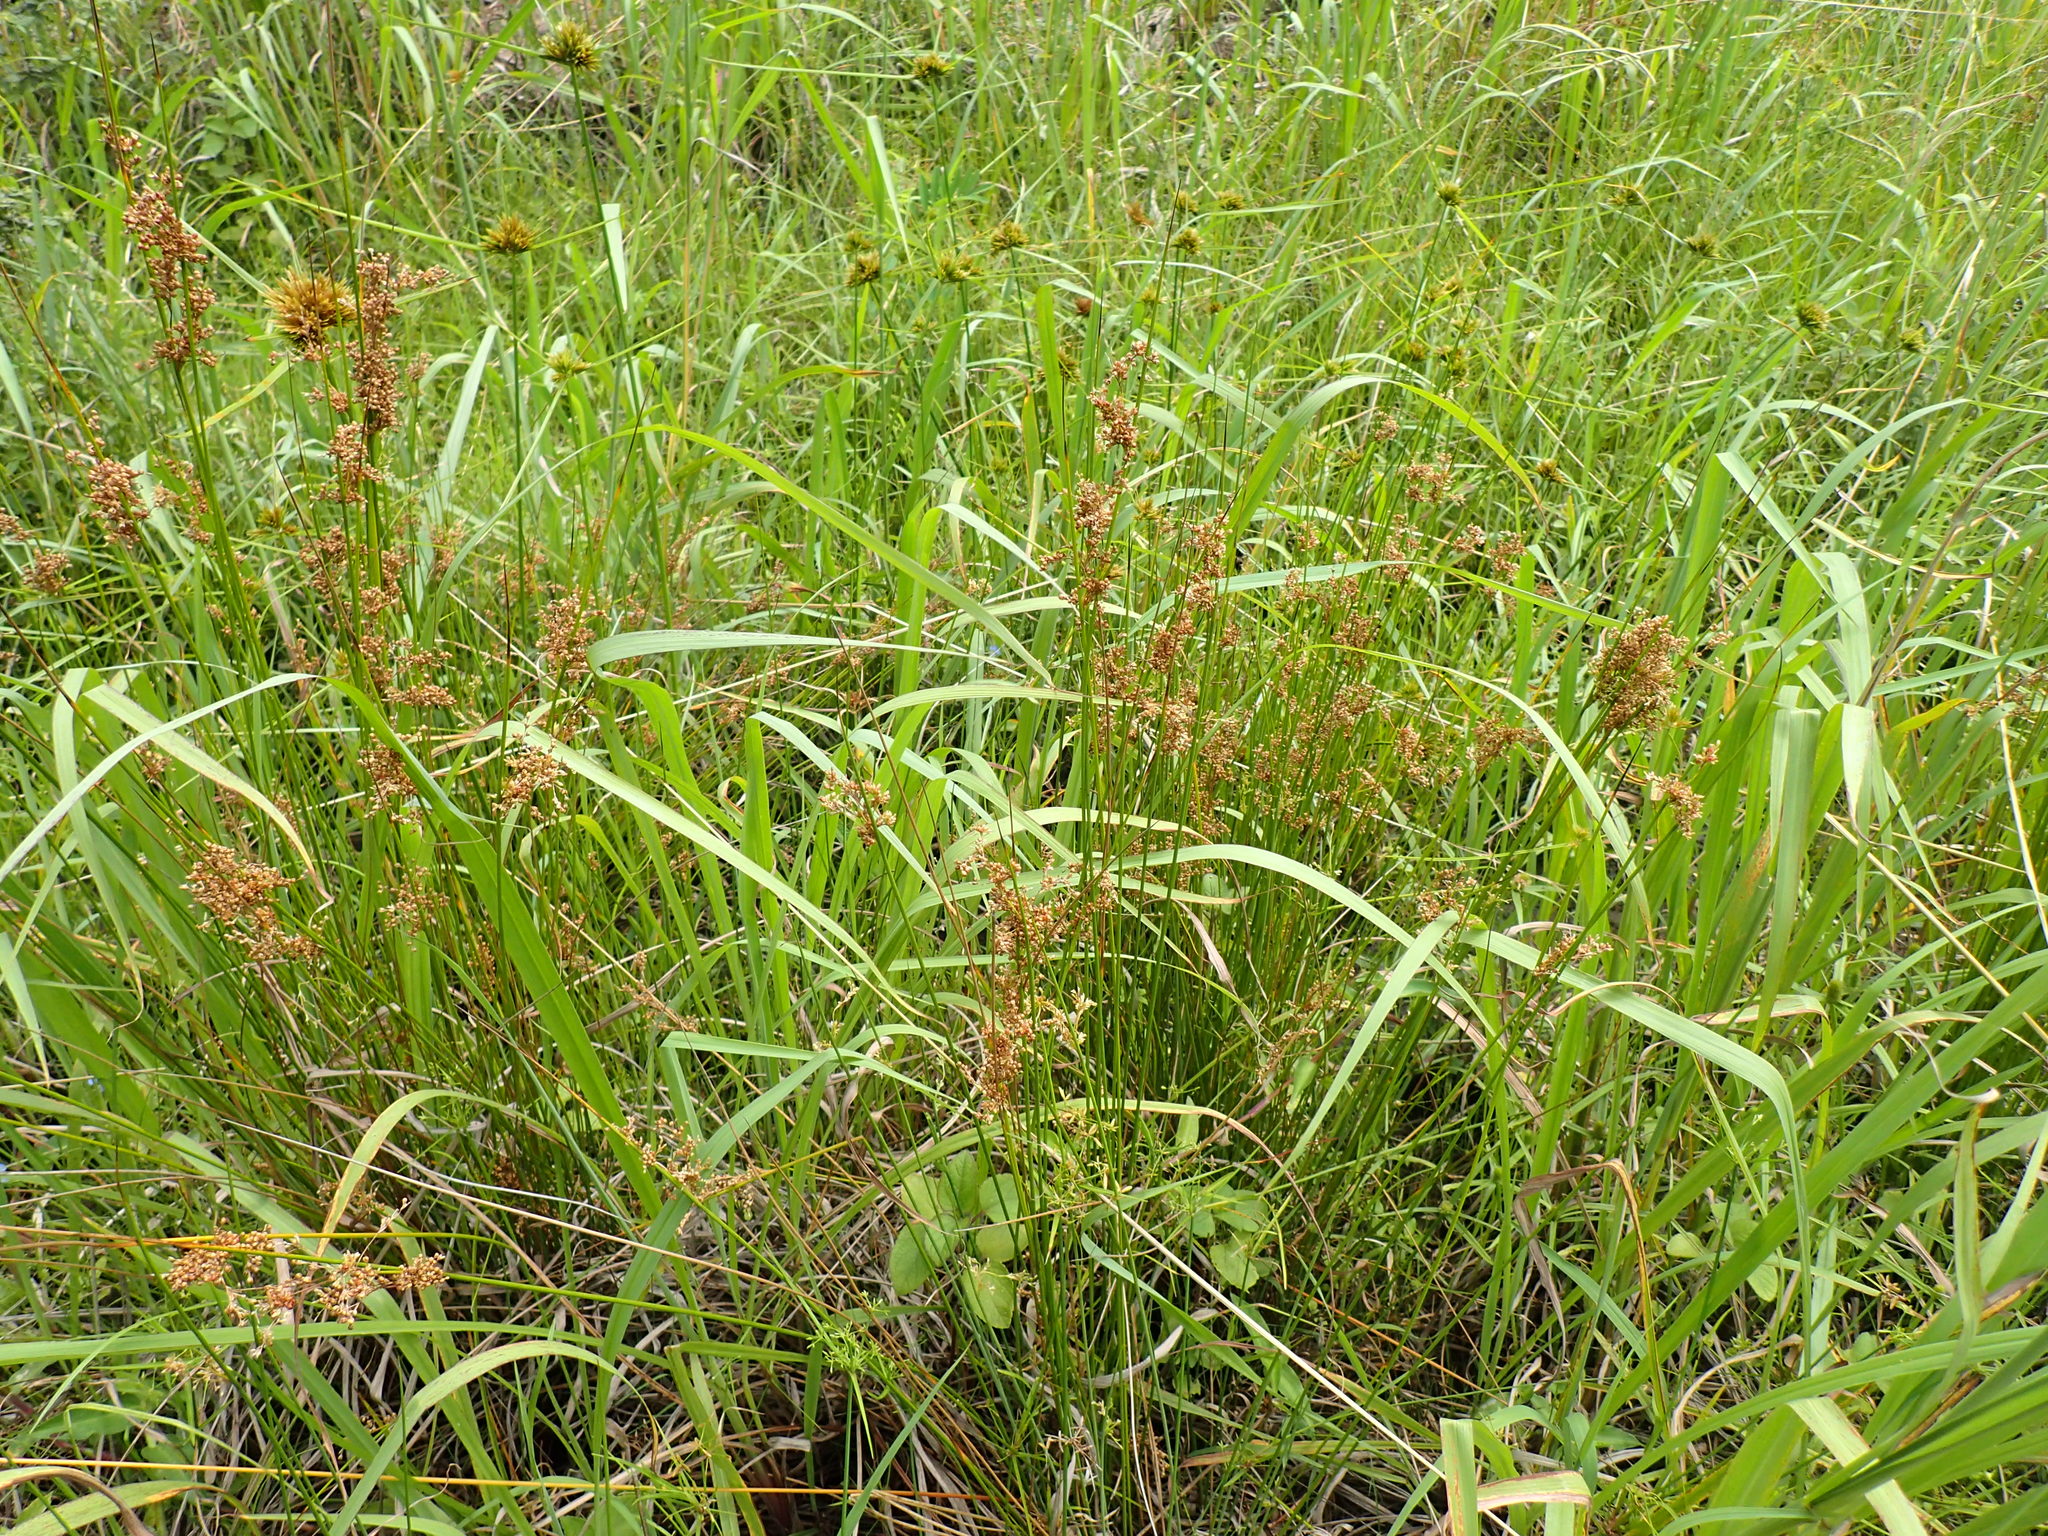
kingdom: Plantae
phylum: Tracheophyta
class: Liliopsida
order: Poales
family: Juncaceae
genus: Juncus
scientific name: Juncus effusus
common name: Soft rush
